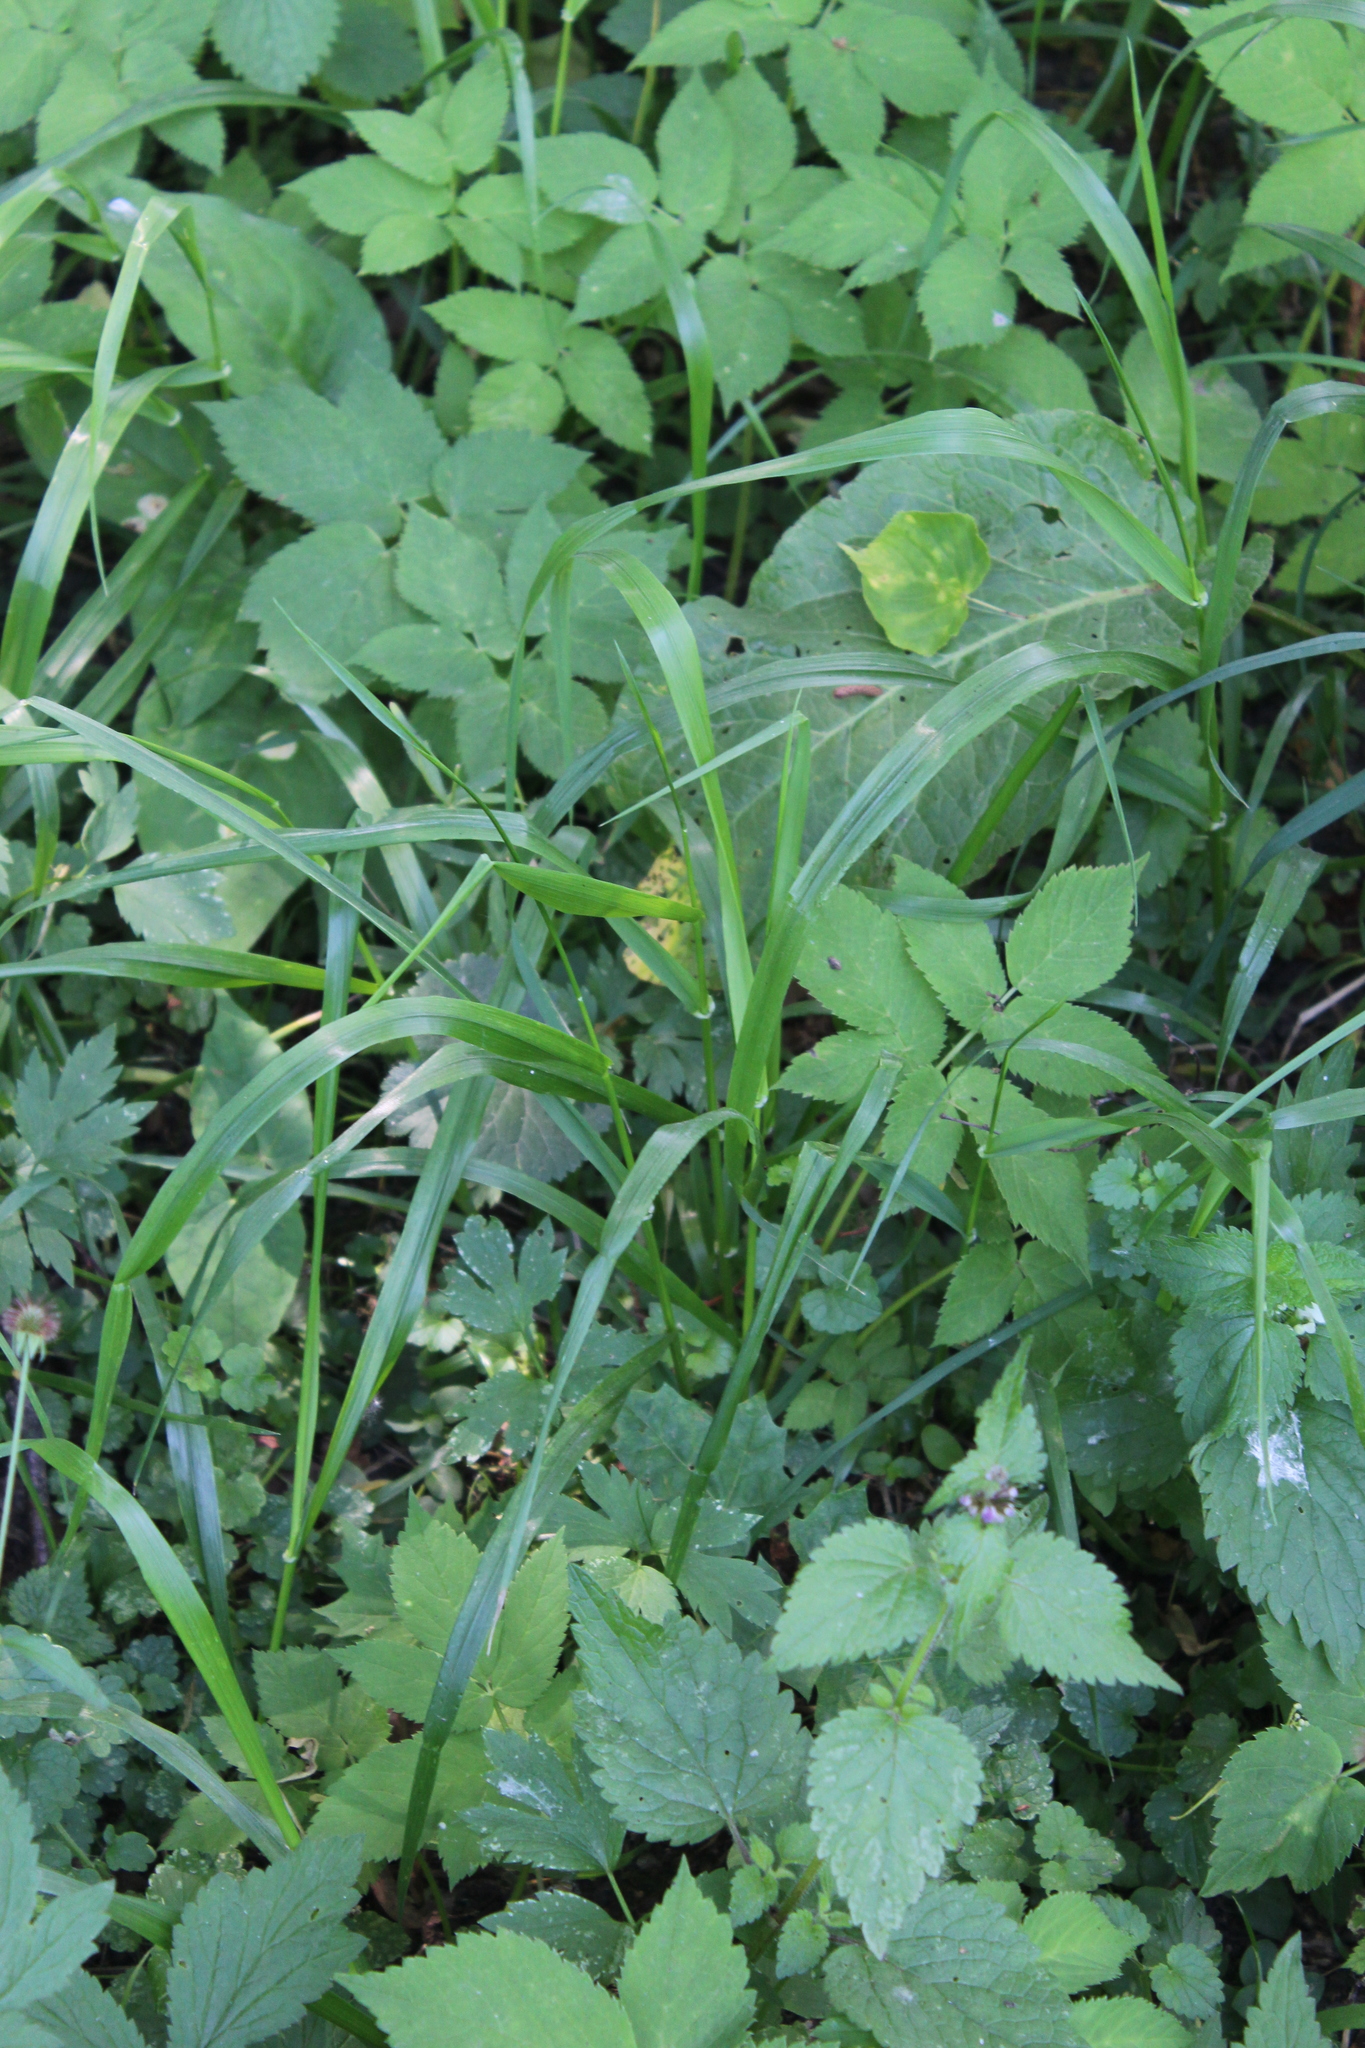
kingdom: Plantae
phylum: Tracheophyta
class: Liliopsida
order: Poales
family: Poaceae
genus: Lolium
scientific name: Lolium giganteum
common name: Giant fescue
